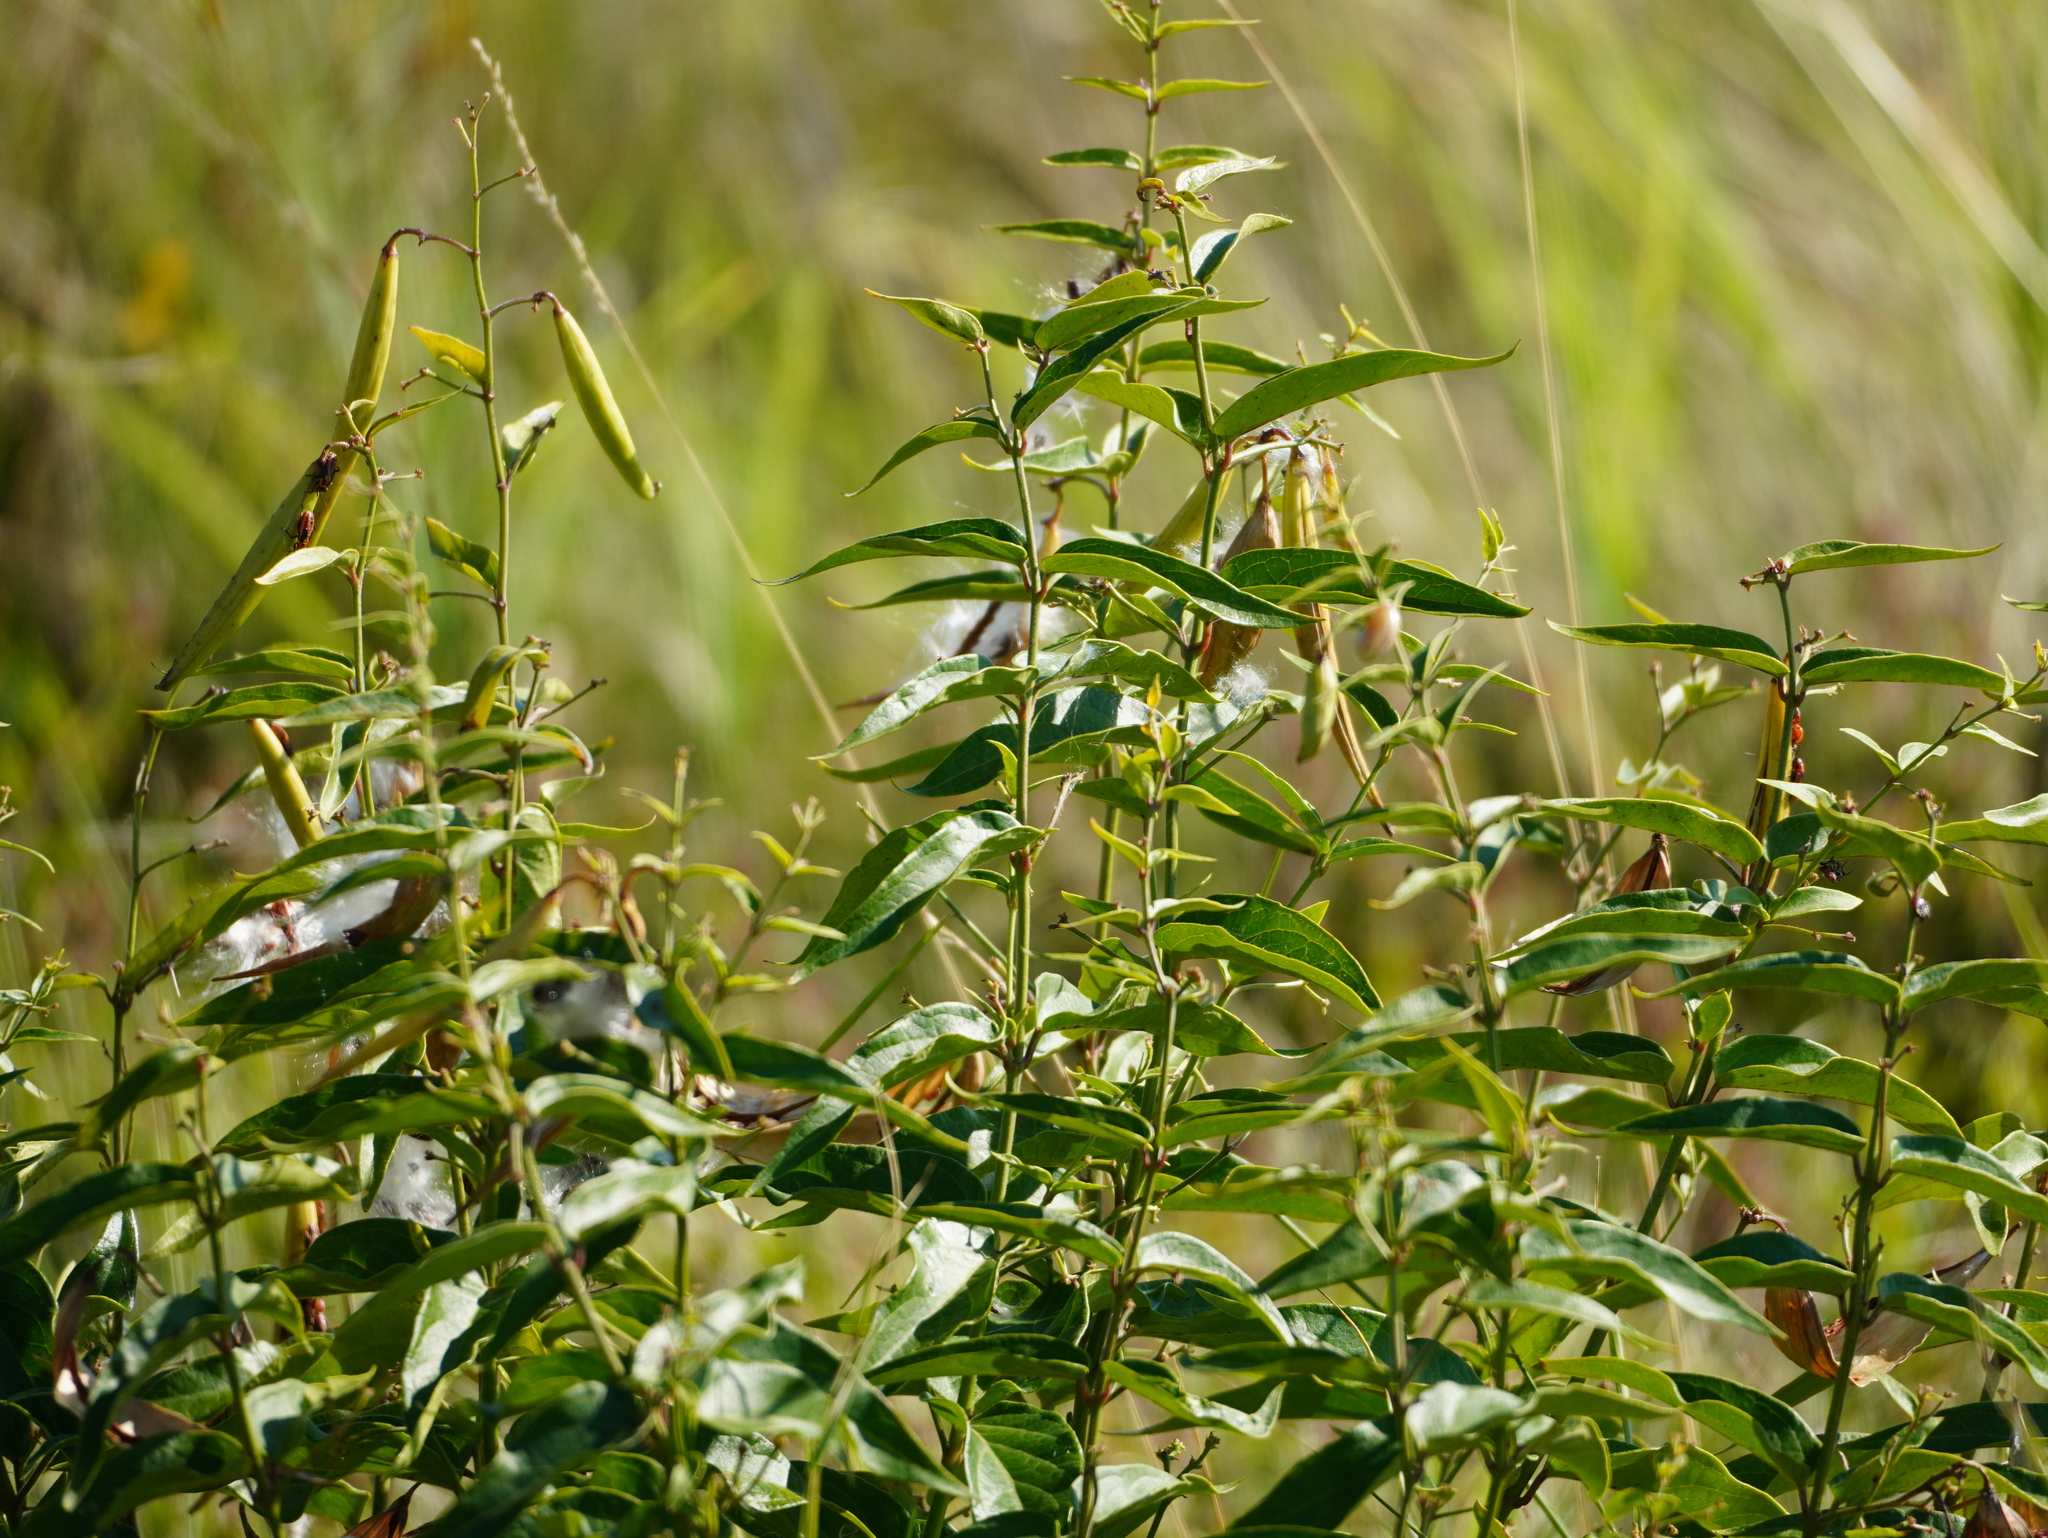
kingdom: Plantae
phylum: Tracheophyta
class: Magnoliopsida
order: Gentianales
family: Apocynaceae
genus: Vincetoxicum
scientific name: Vincetoxicum hirundinaria
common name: White swallowwort
